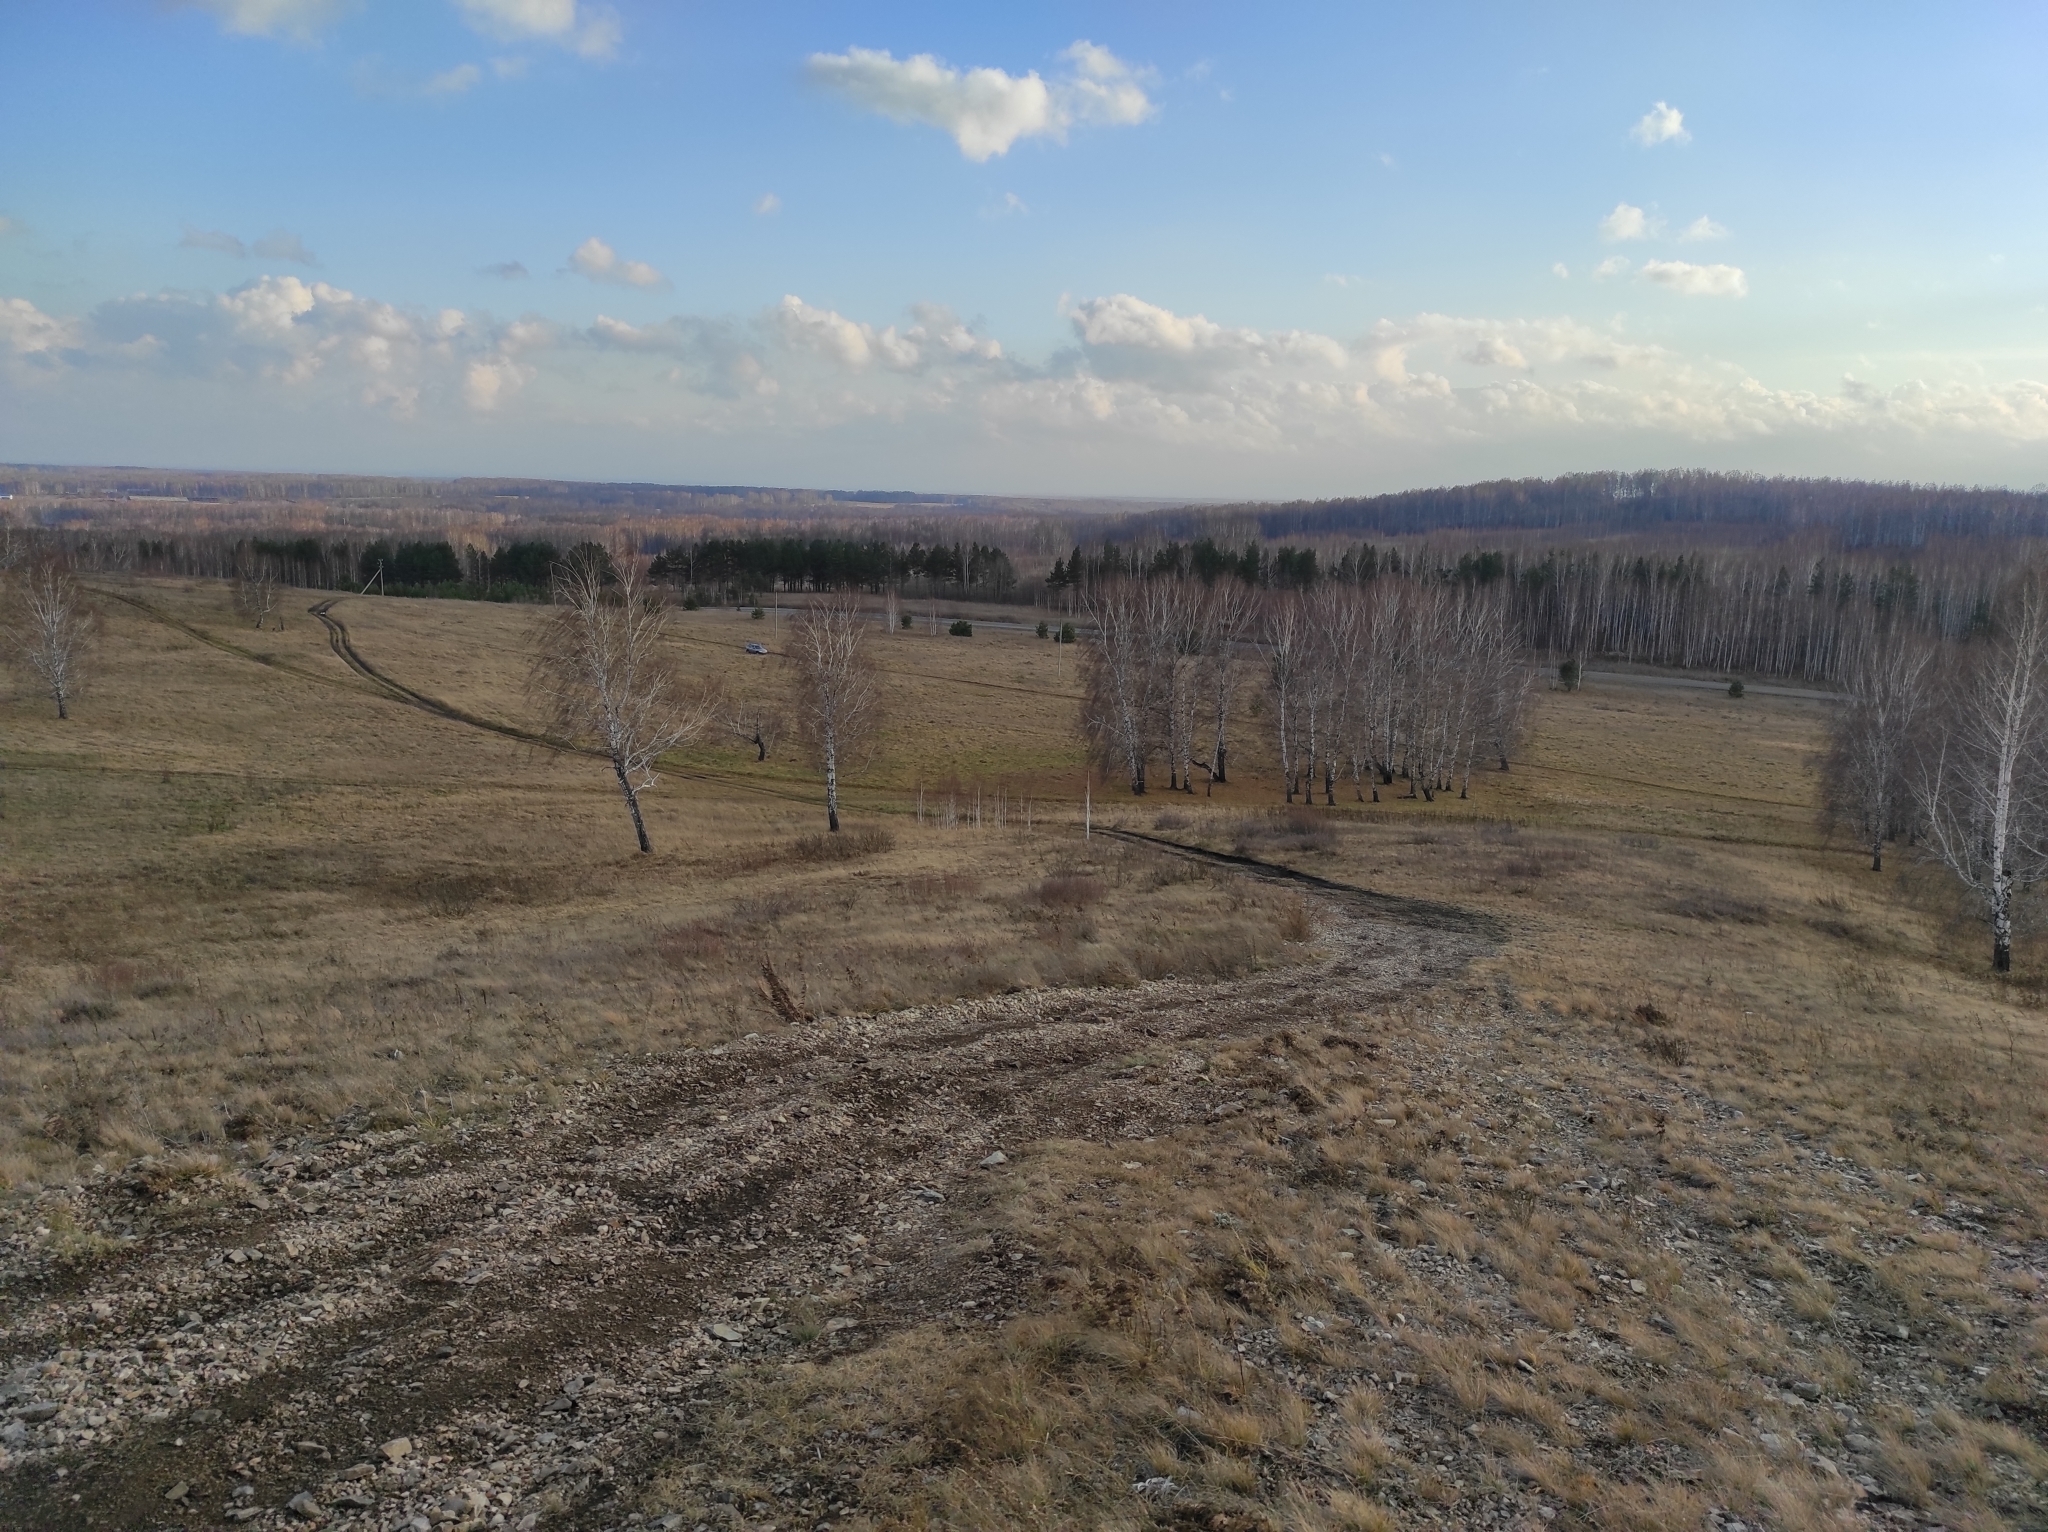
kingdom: Plantae
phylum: Tracheophyta
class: Magnoliopsida
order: Fagales
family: Betulaceae
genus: Betula
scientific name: Betula pendula
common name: Silver birch
